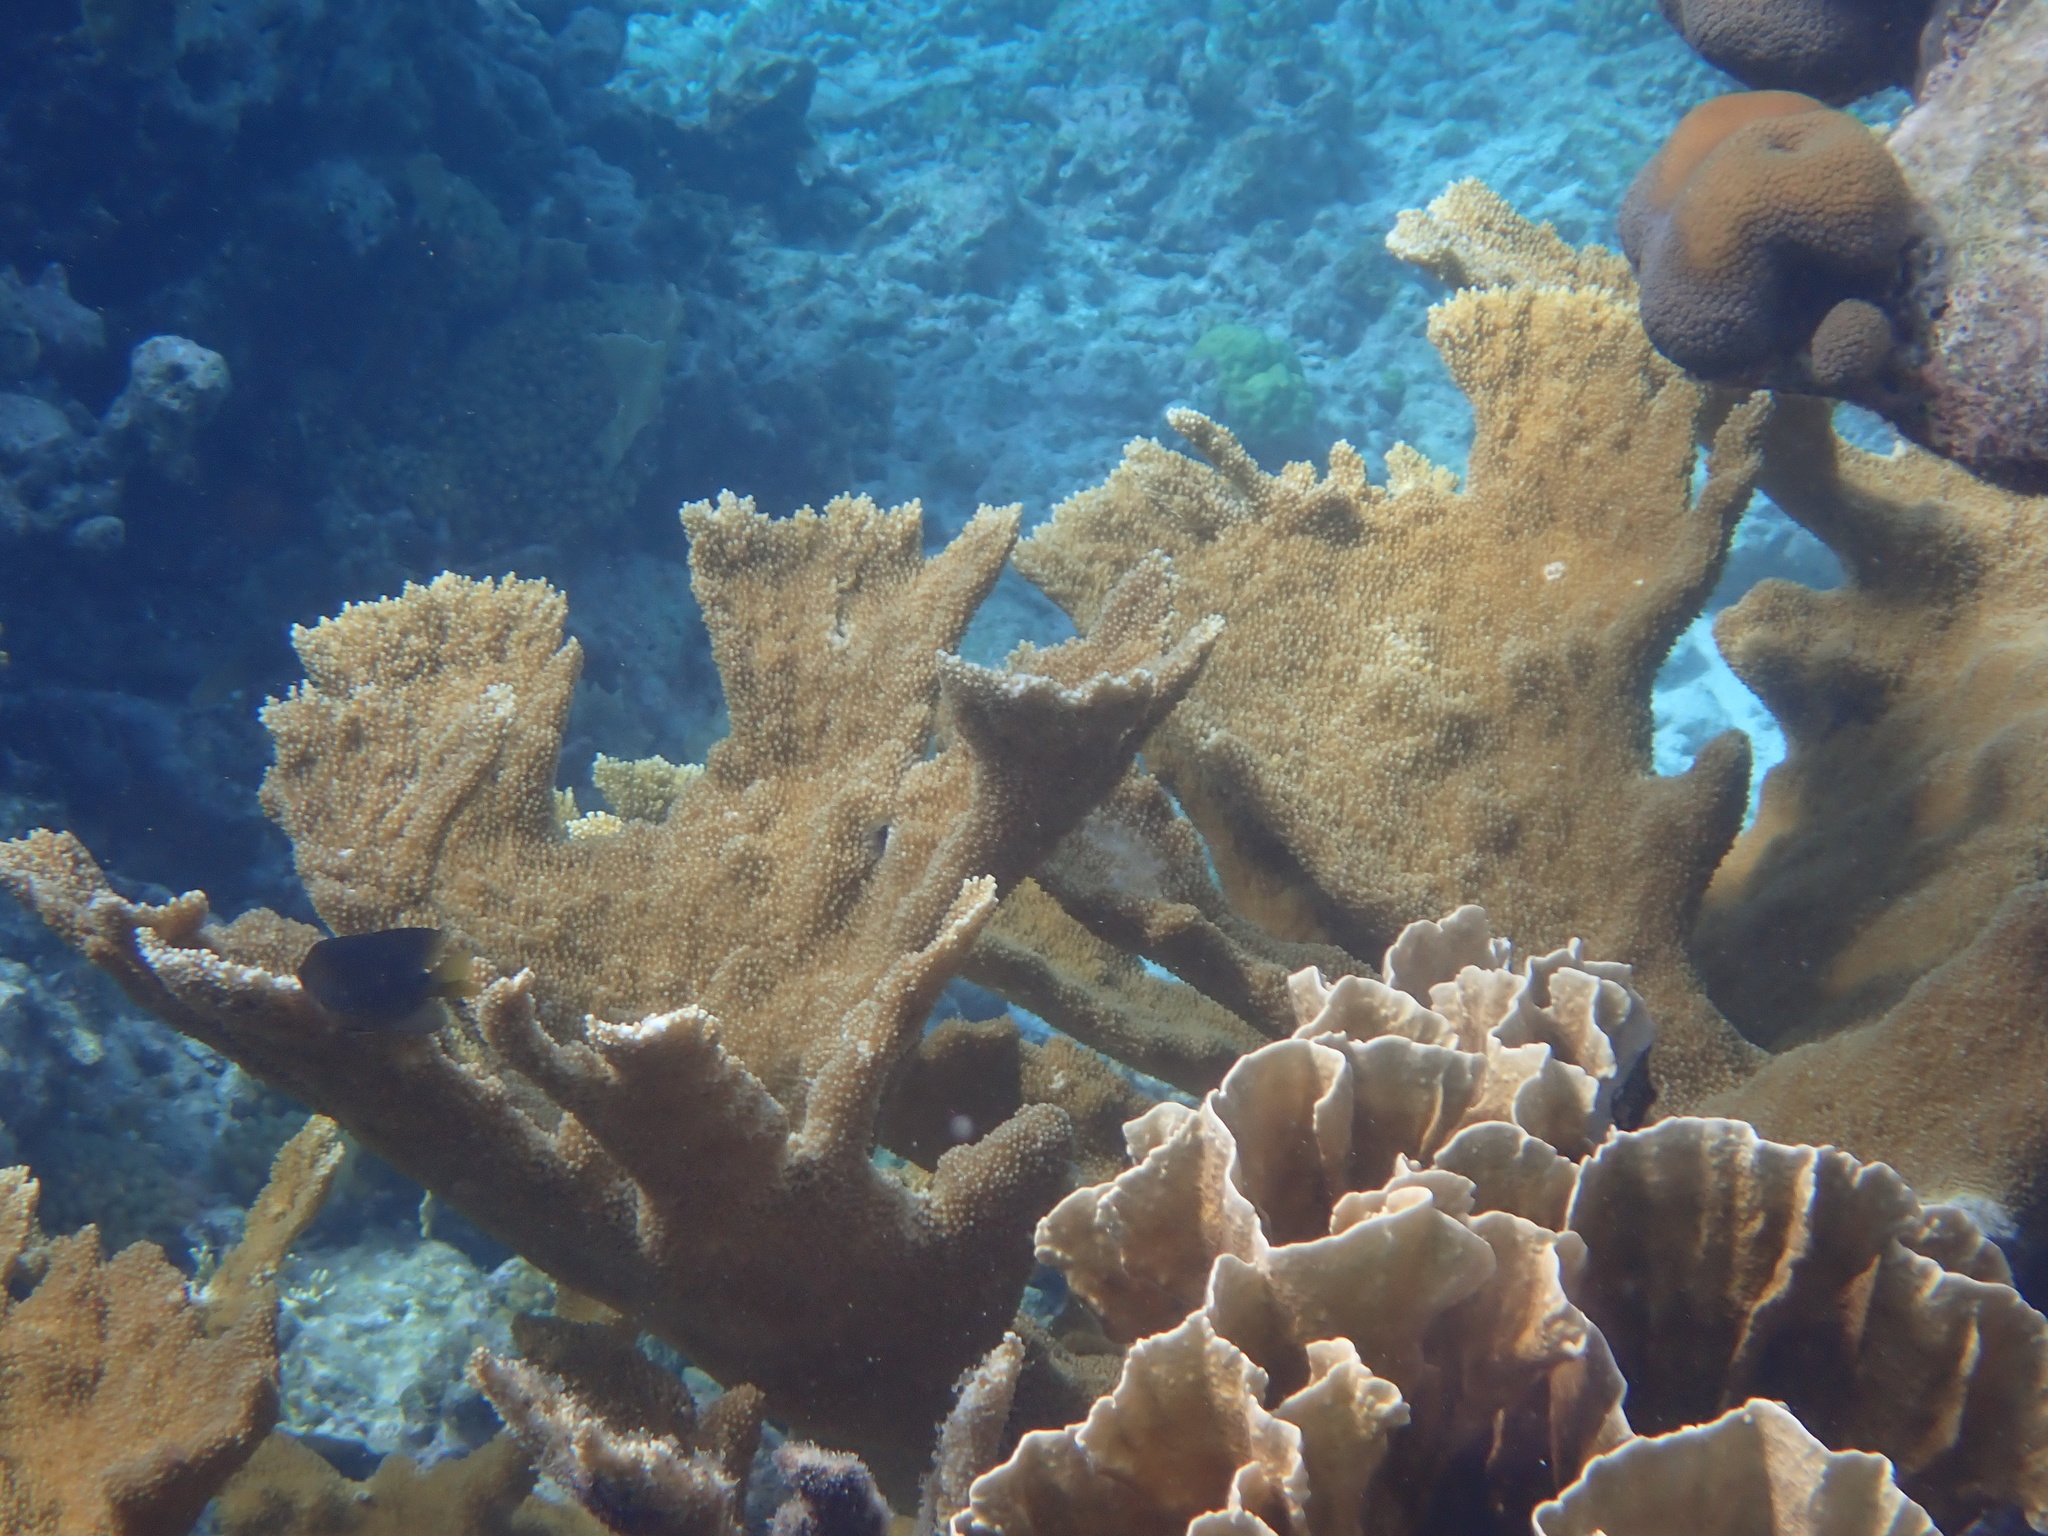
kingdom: Animalia
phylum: Cnidaria
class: Anthozoa
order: Scleractinia
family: Acroporidae
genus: Acropora
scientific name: Acropora palmata
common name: Elkhorn coral
